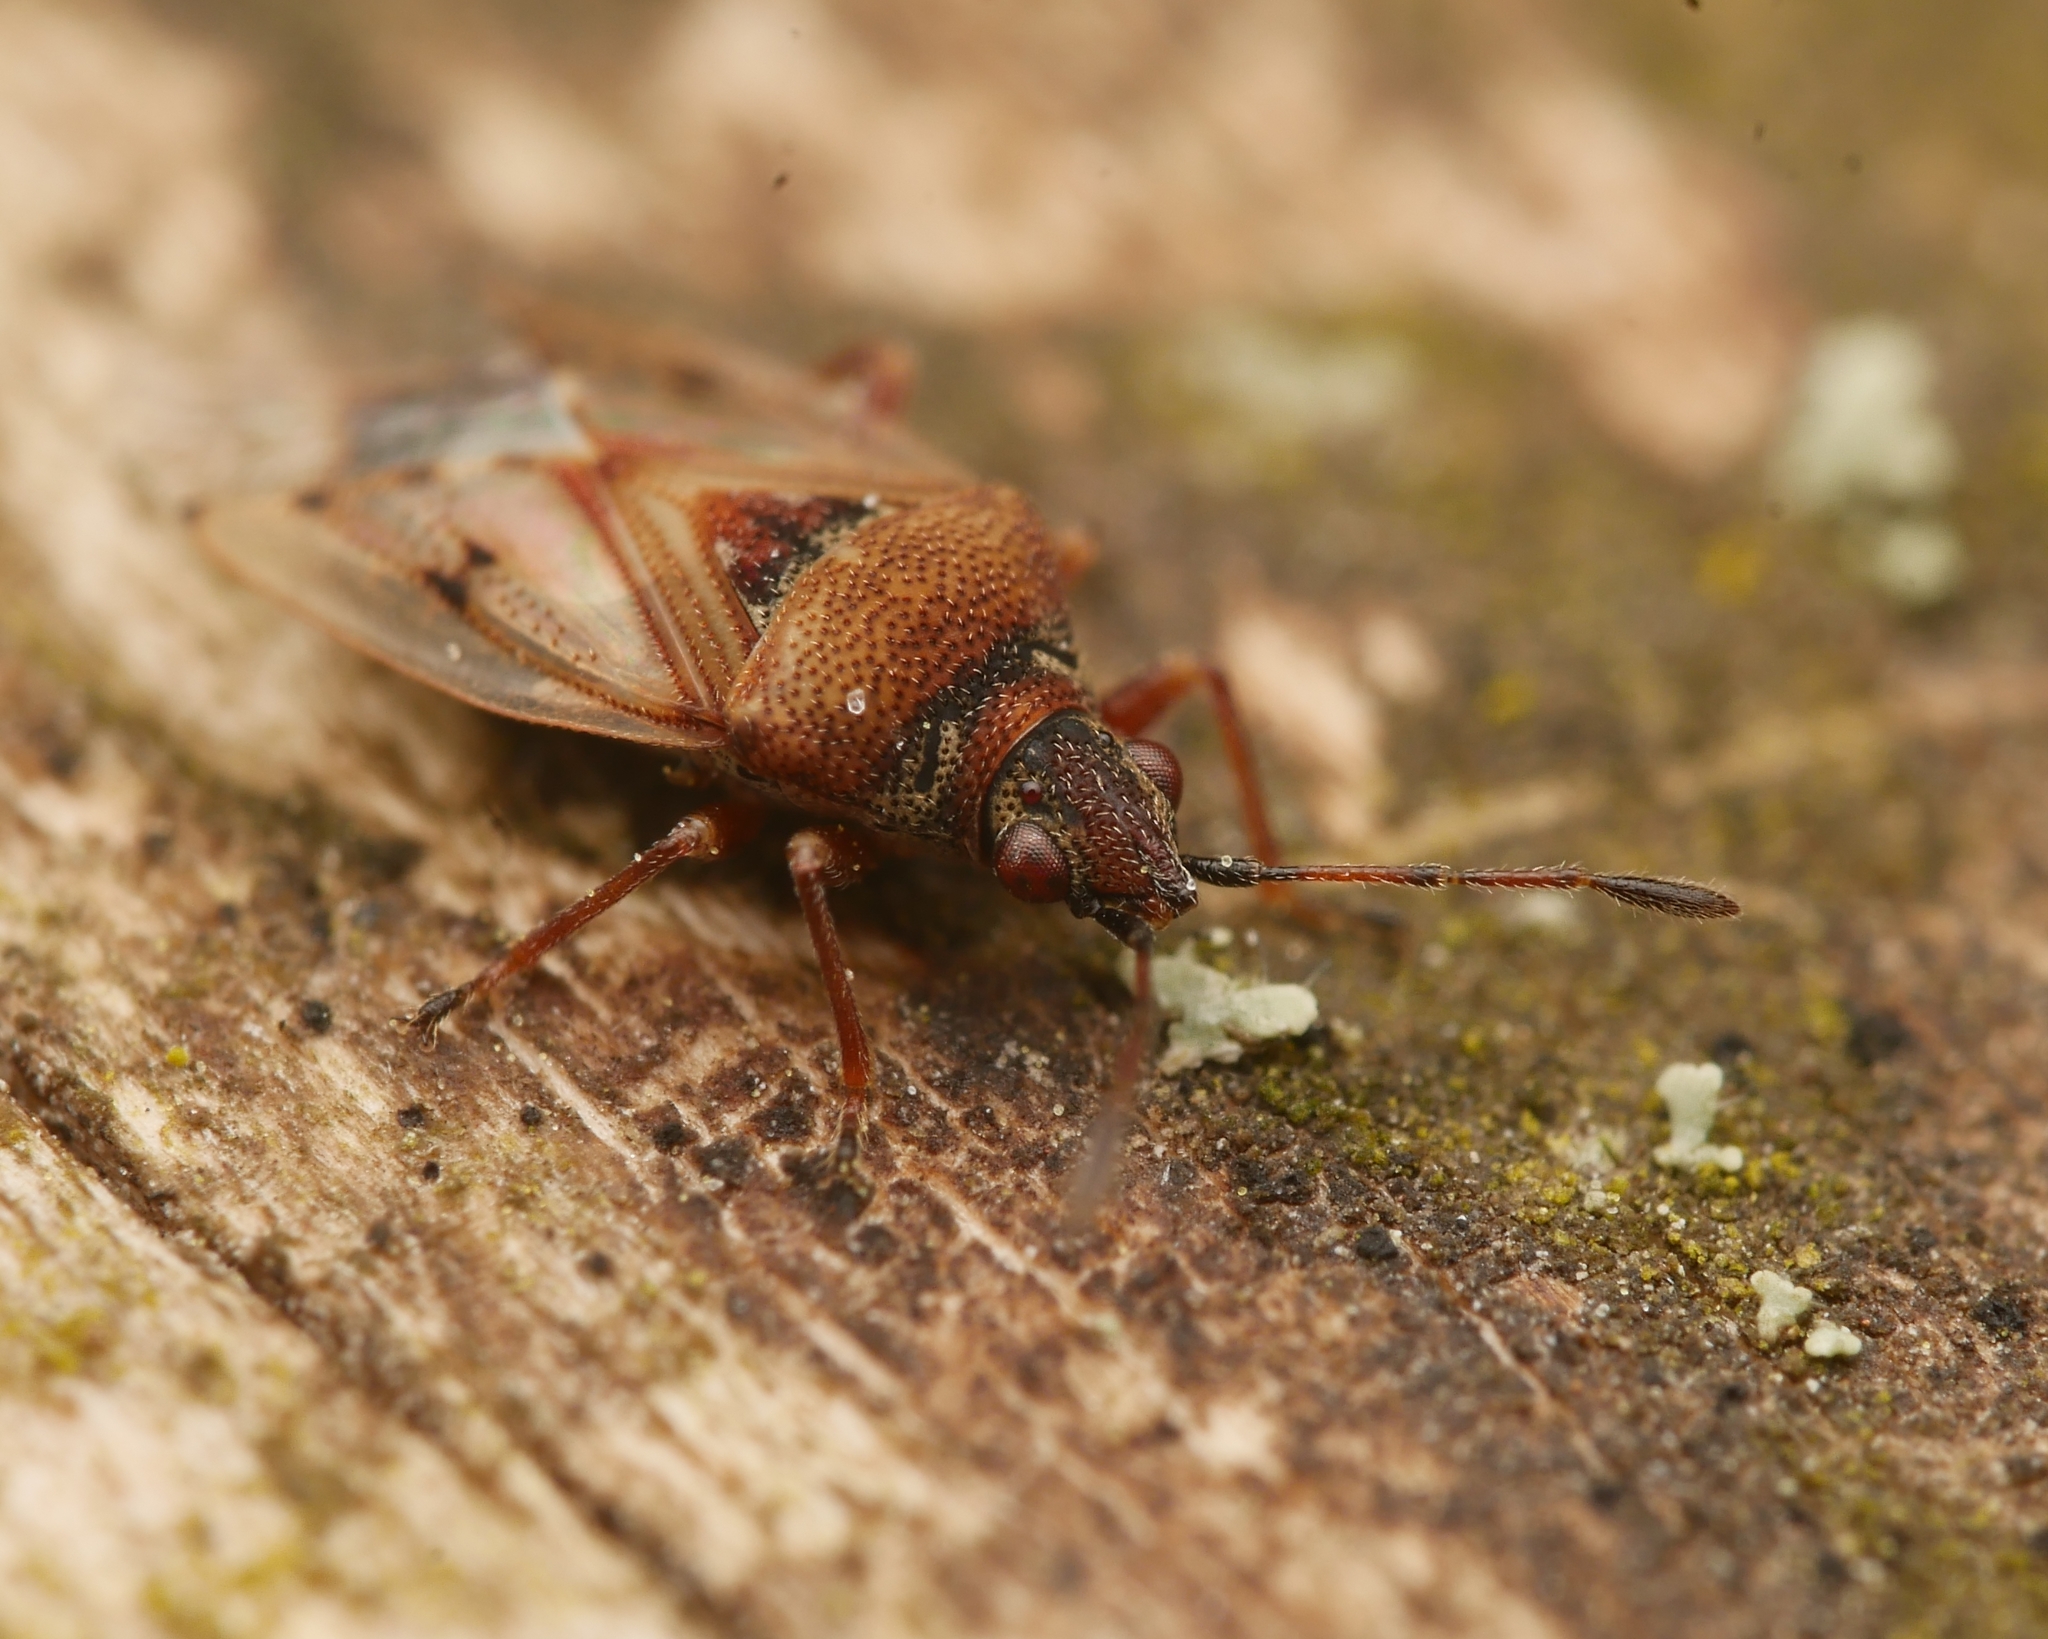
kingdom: Animalia
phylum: Arthropoda
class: Insecta
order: Hemiptera
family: Lygaeidae
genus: Kleidocerys
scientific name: Kleidocerys resedae
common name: Birch catkin bug
